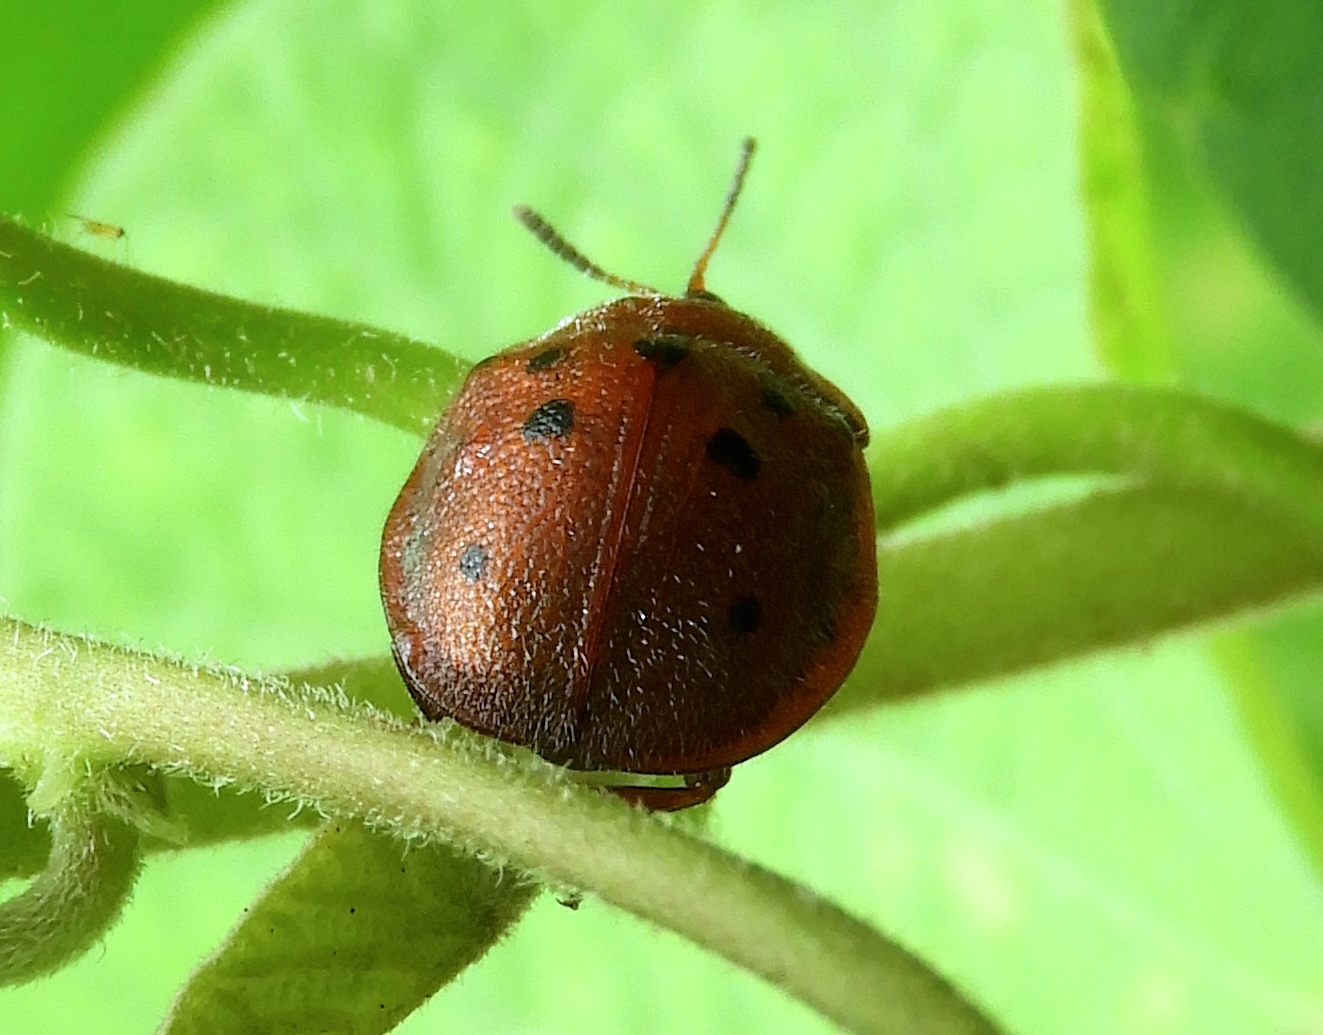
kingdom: Animalia
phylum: Arthropoda
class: Insecta
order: Coleoptera
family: Chrysomelidae
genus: Chelymorpha
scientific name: Chelymorpha
